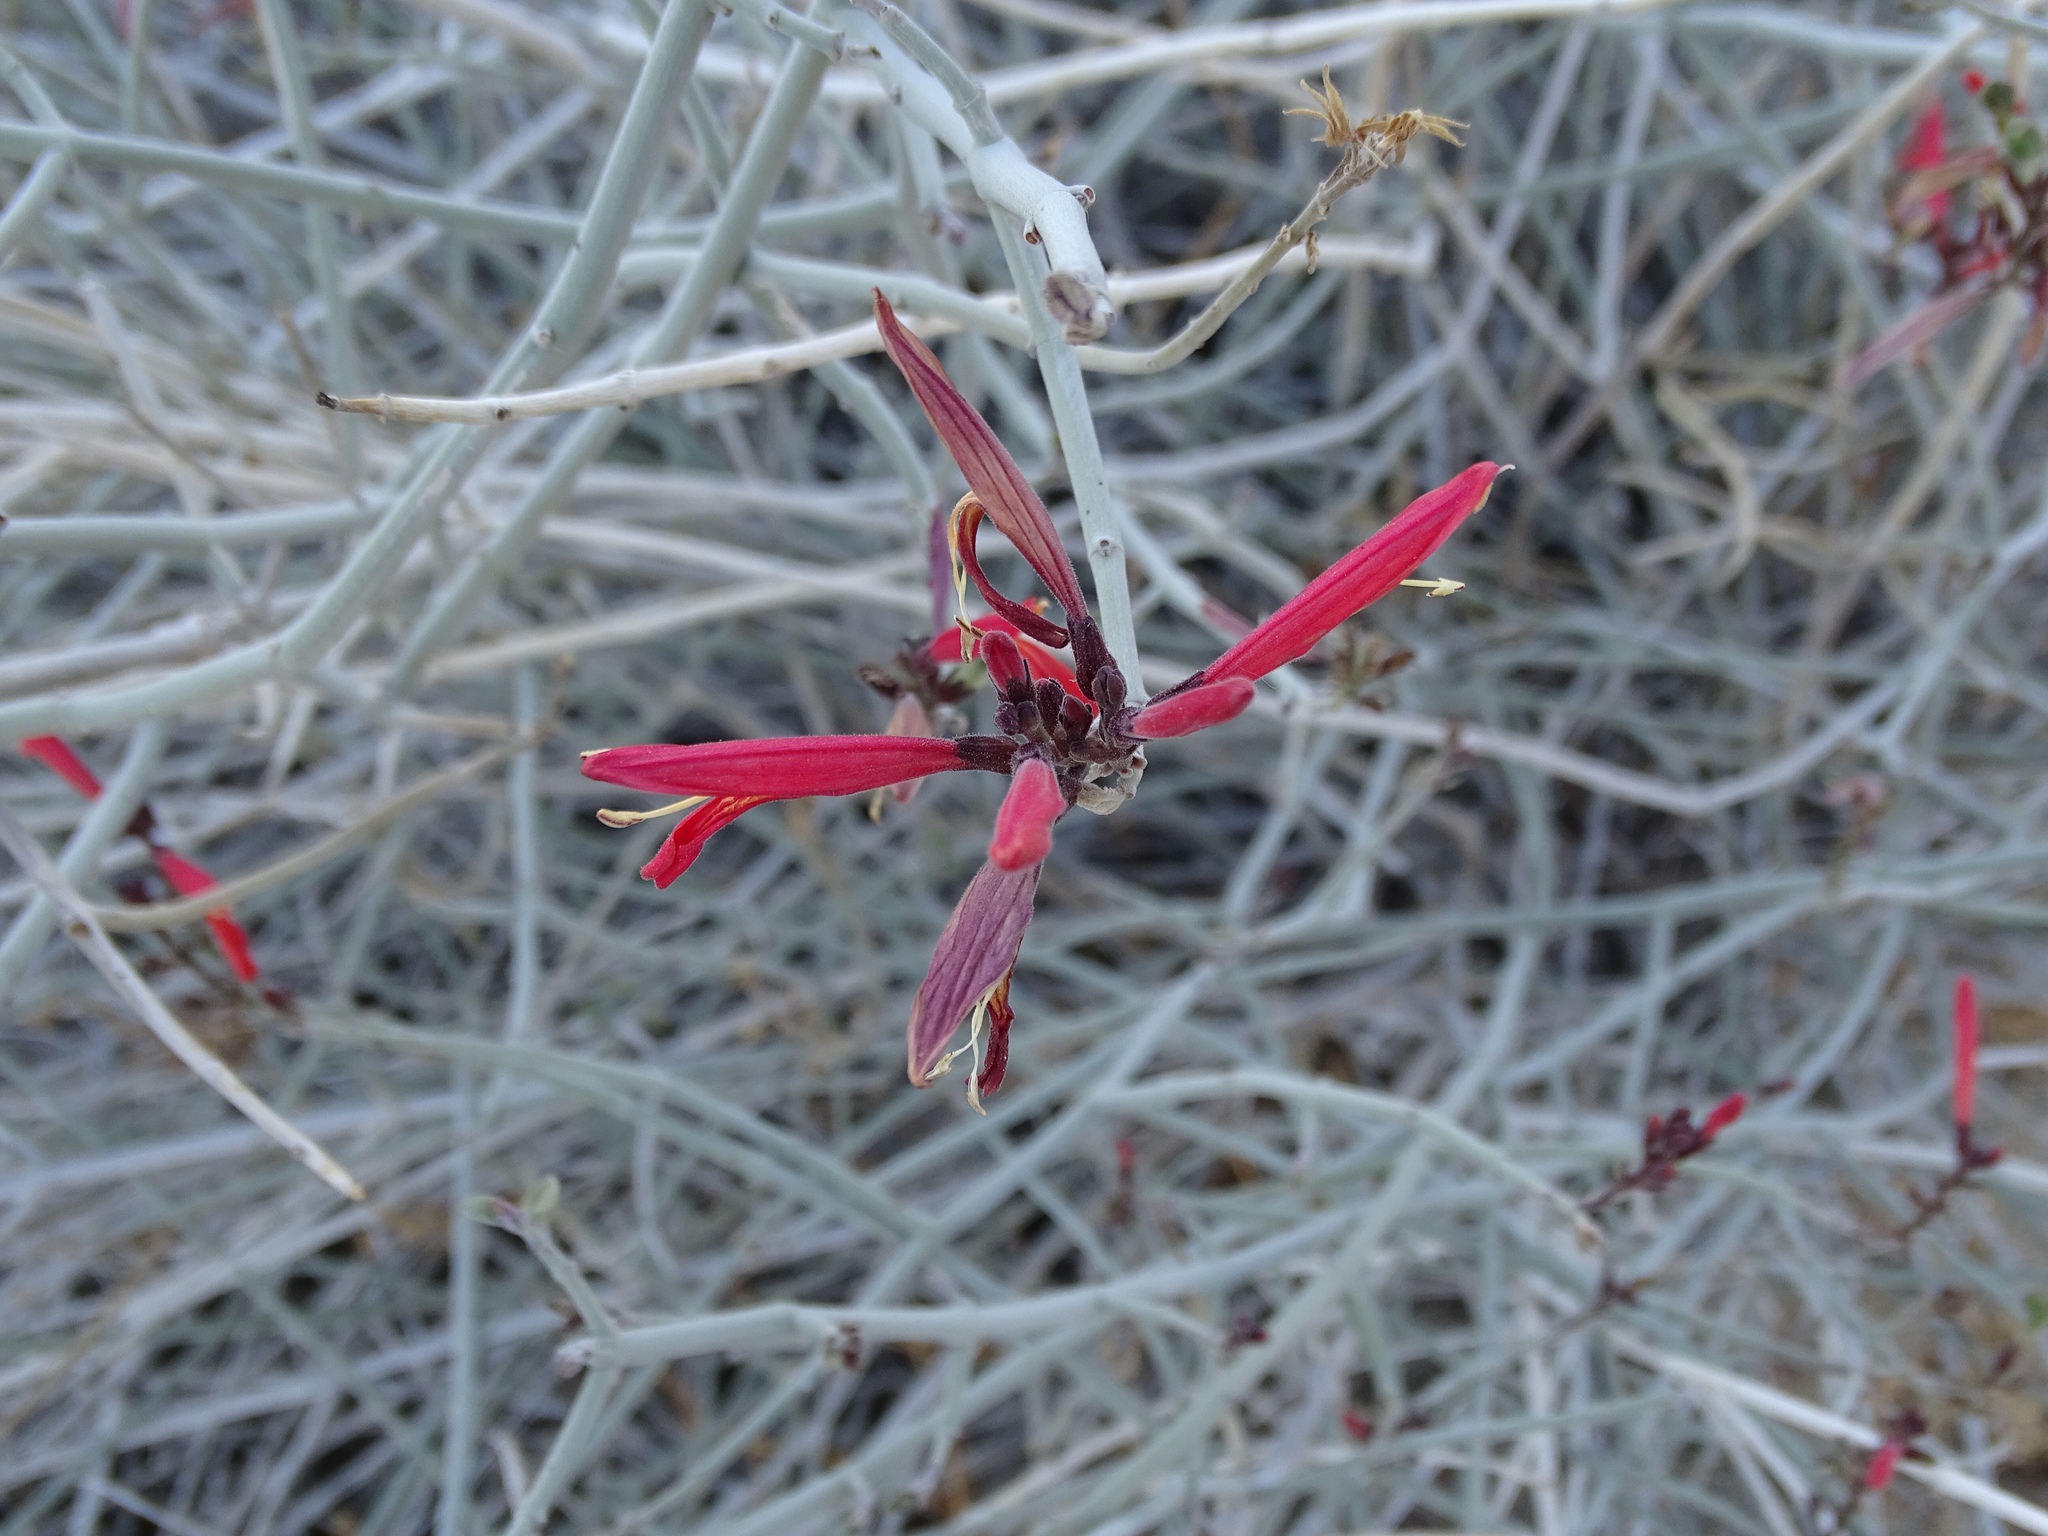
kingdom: Plantae
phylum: Tracheophyta
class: Magnoliopsida
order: Lamiales
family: Acanthaceae
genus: Justicia
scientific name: Justicia californica
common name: Chuparosa-honeysuckle
